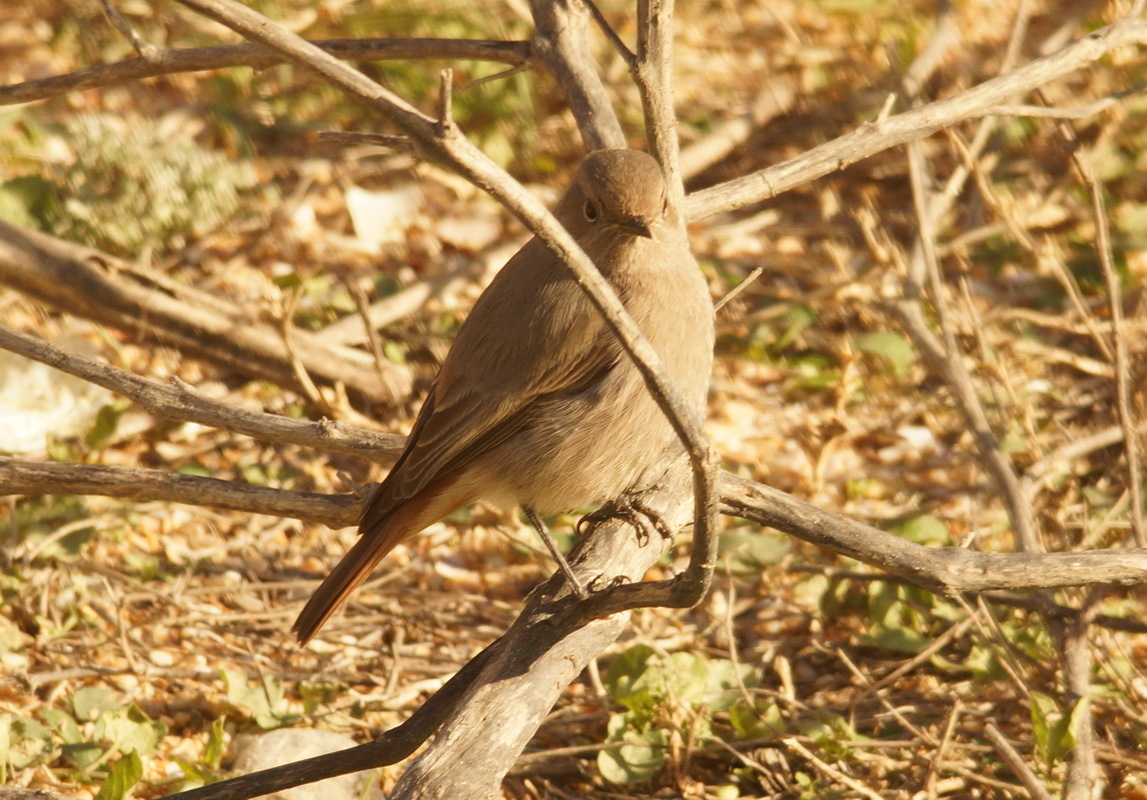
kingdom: Animalia
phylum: Chordata
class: Aves
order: Passeriformes
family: Muscicapidae
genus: Phoenicurus
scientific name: Phoenicurus ochruros
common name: Black redstart
